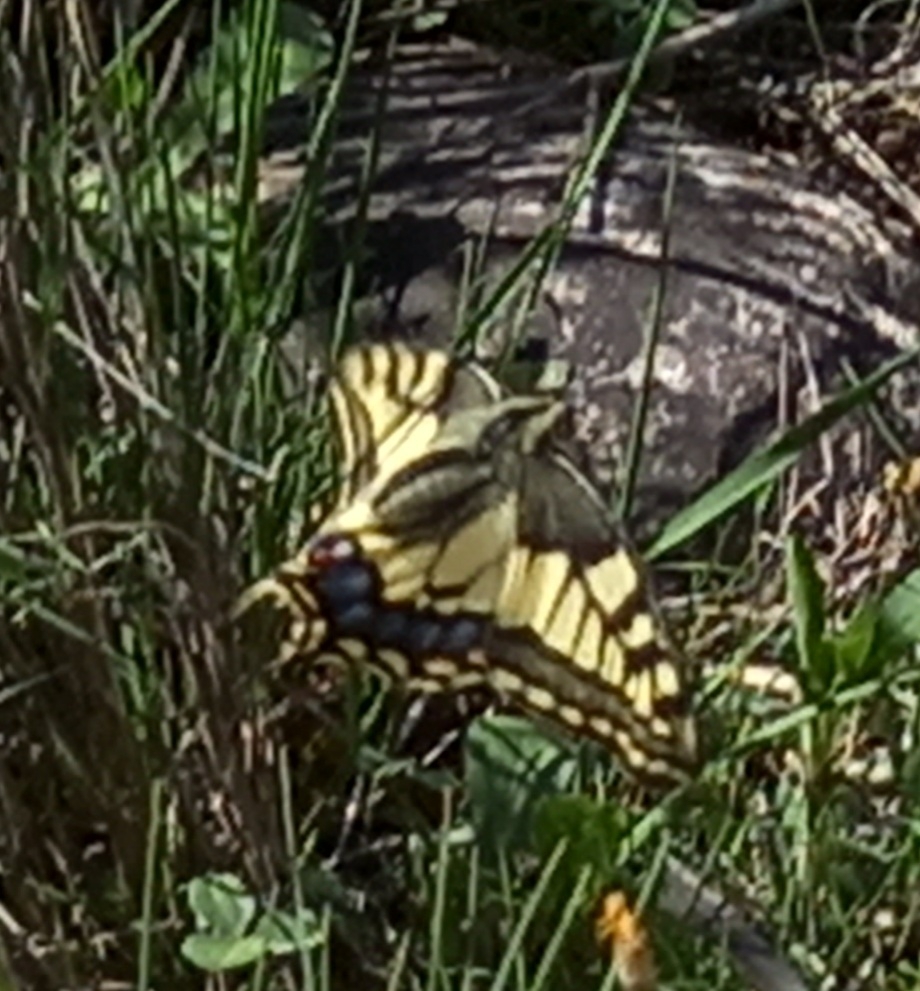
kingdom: Animalia
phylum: Arthropoda
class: Insecta
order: Lepidoptera
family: Papilionidae
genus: Papilio
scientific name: Papilio machaon
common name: Swallowtail
